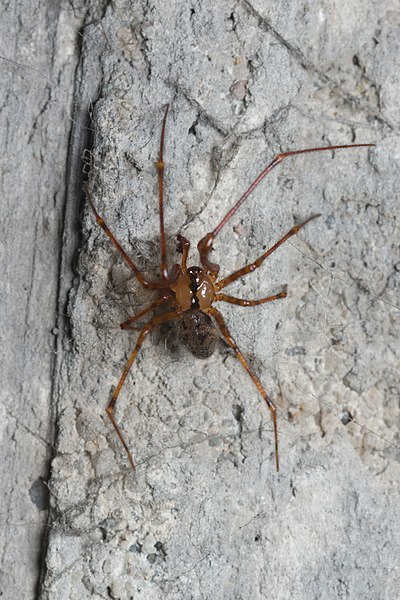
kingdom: Animalia
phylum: Arthropoda
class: Arachnida
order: Araneae
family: Nesticidae
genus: Nesticus
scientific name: Nesticus cellulanus
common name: Comb-footed cellar spider
